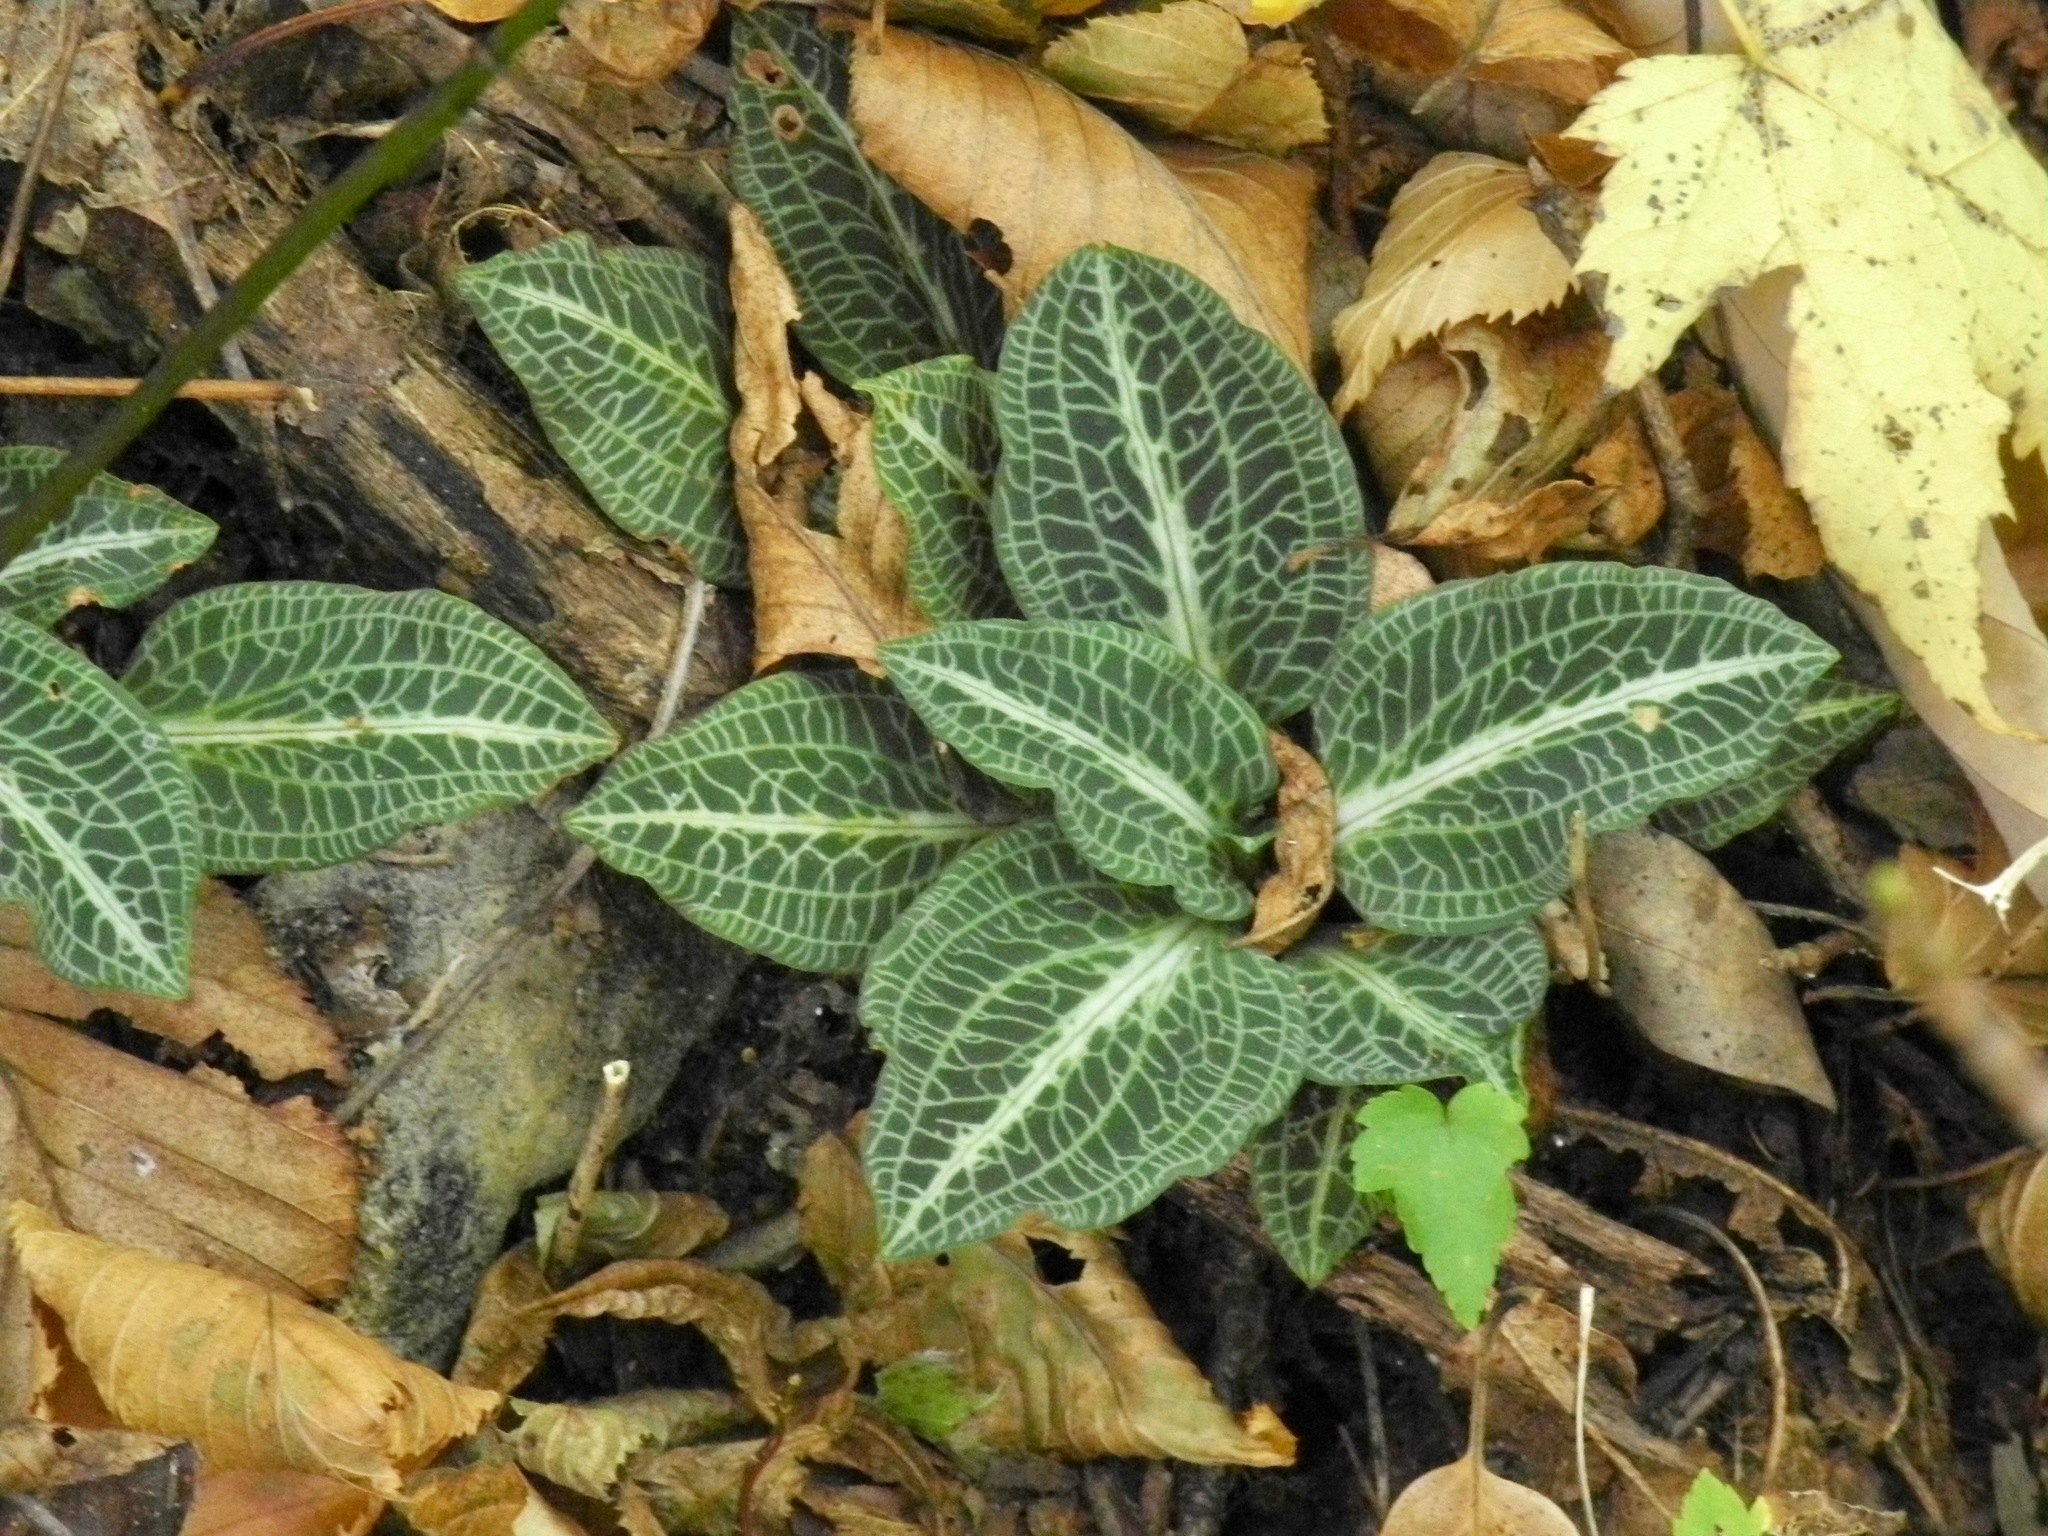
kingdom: Plantae
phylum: Tracheophyta
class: Liliopsida
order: Asparagales
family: Orchidaceae
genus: Goodyera
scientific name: Goodyera pubescens
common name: Downy rattlesnake-plantain
